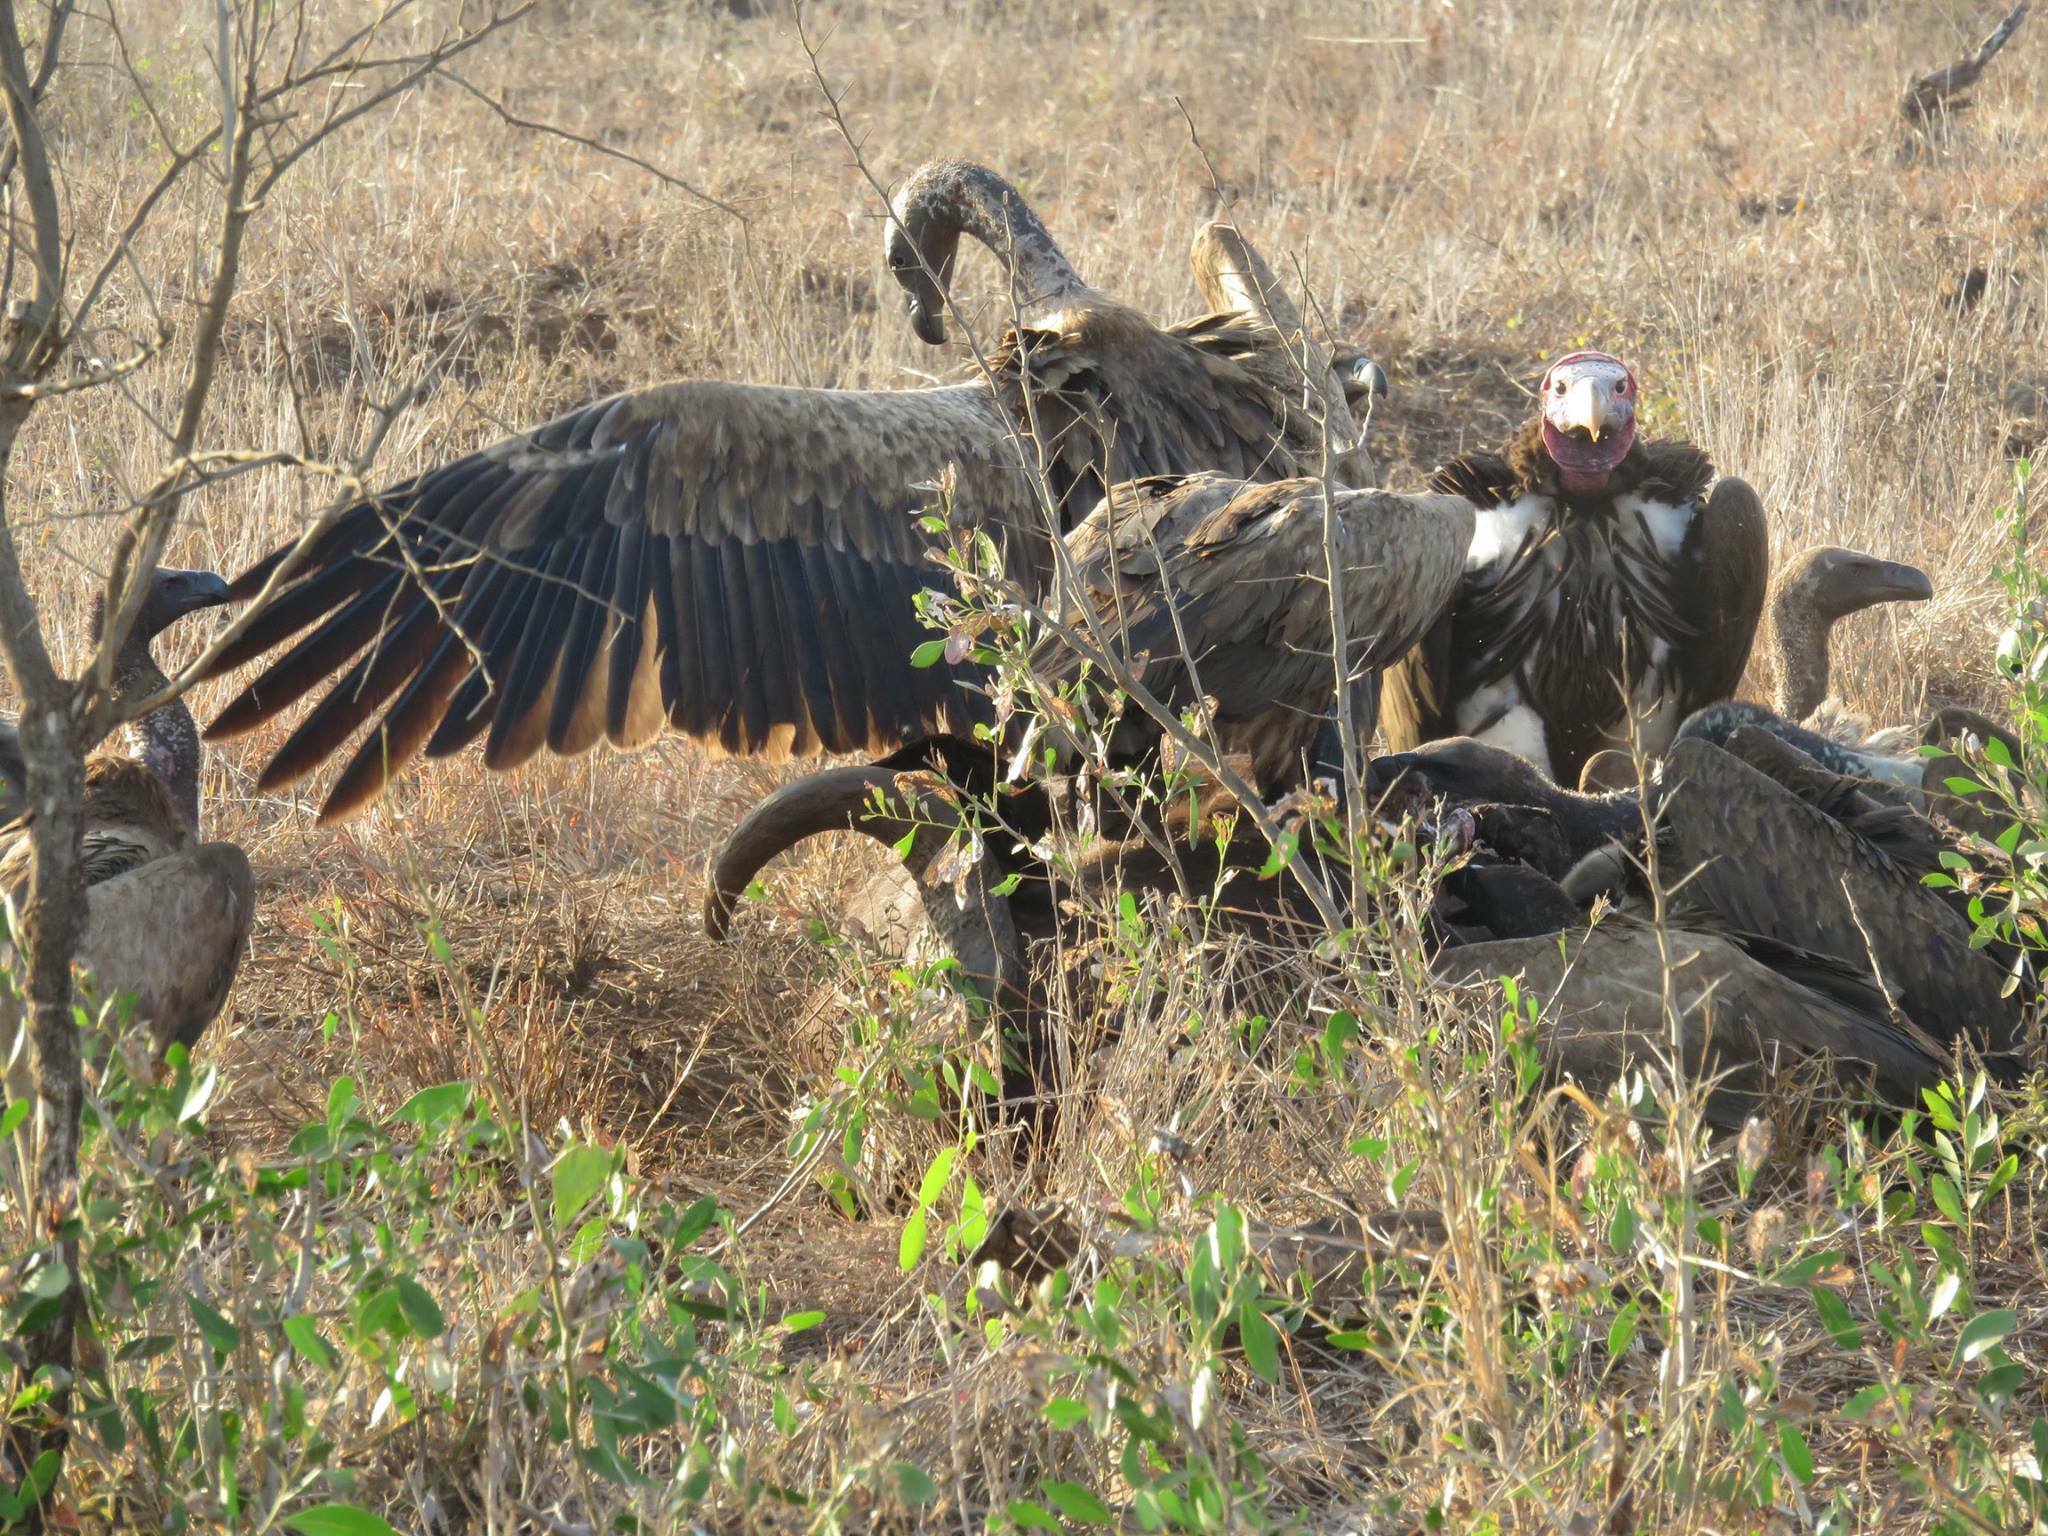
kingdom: Animalia
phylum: Chordata
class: Aves
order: Accipitriformes
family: Accipitridae
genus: Torgos
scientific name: Torgos tracheliotos
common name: Lappet-faced vulture
